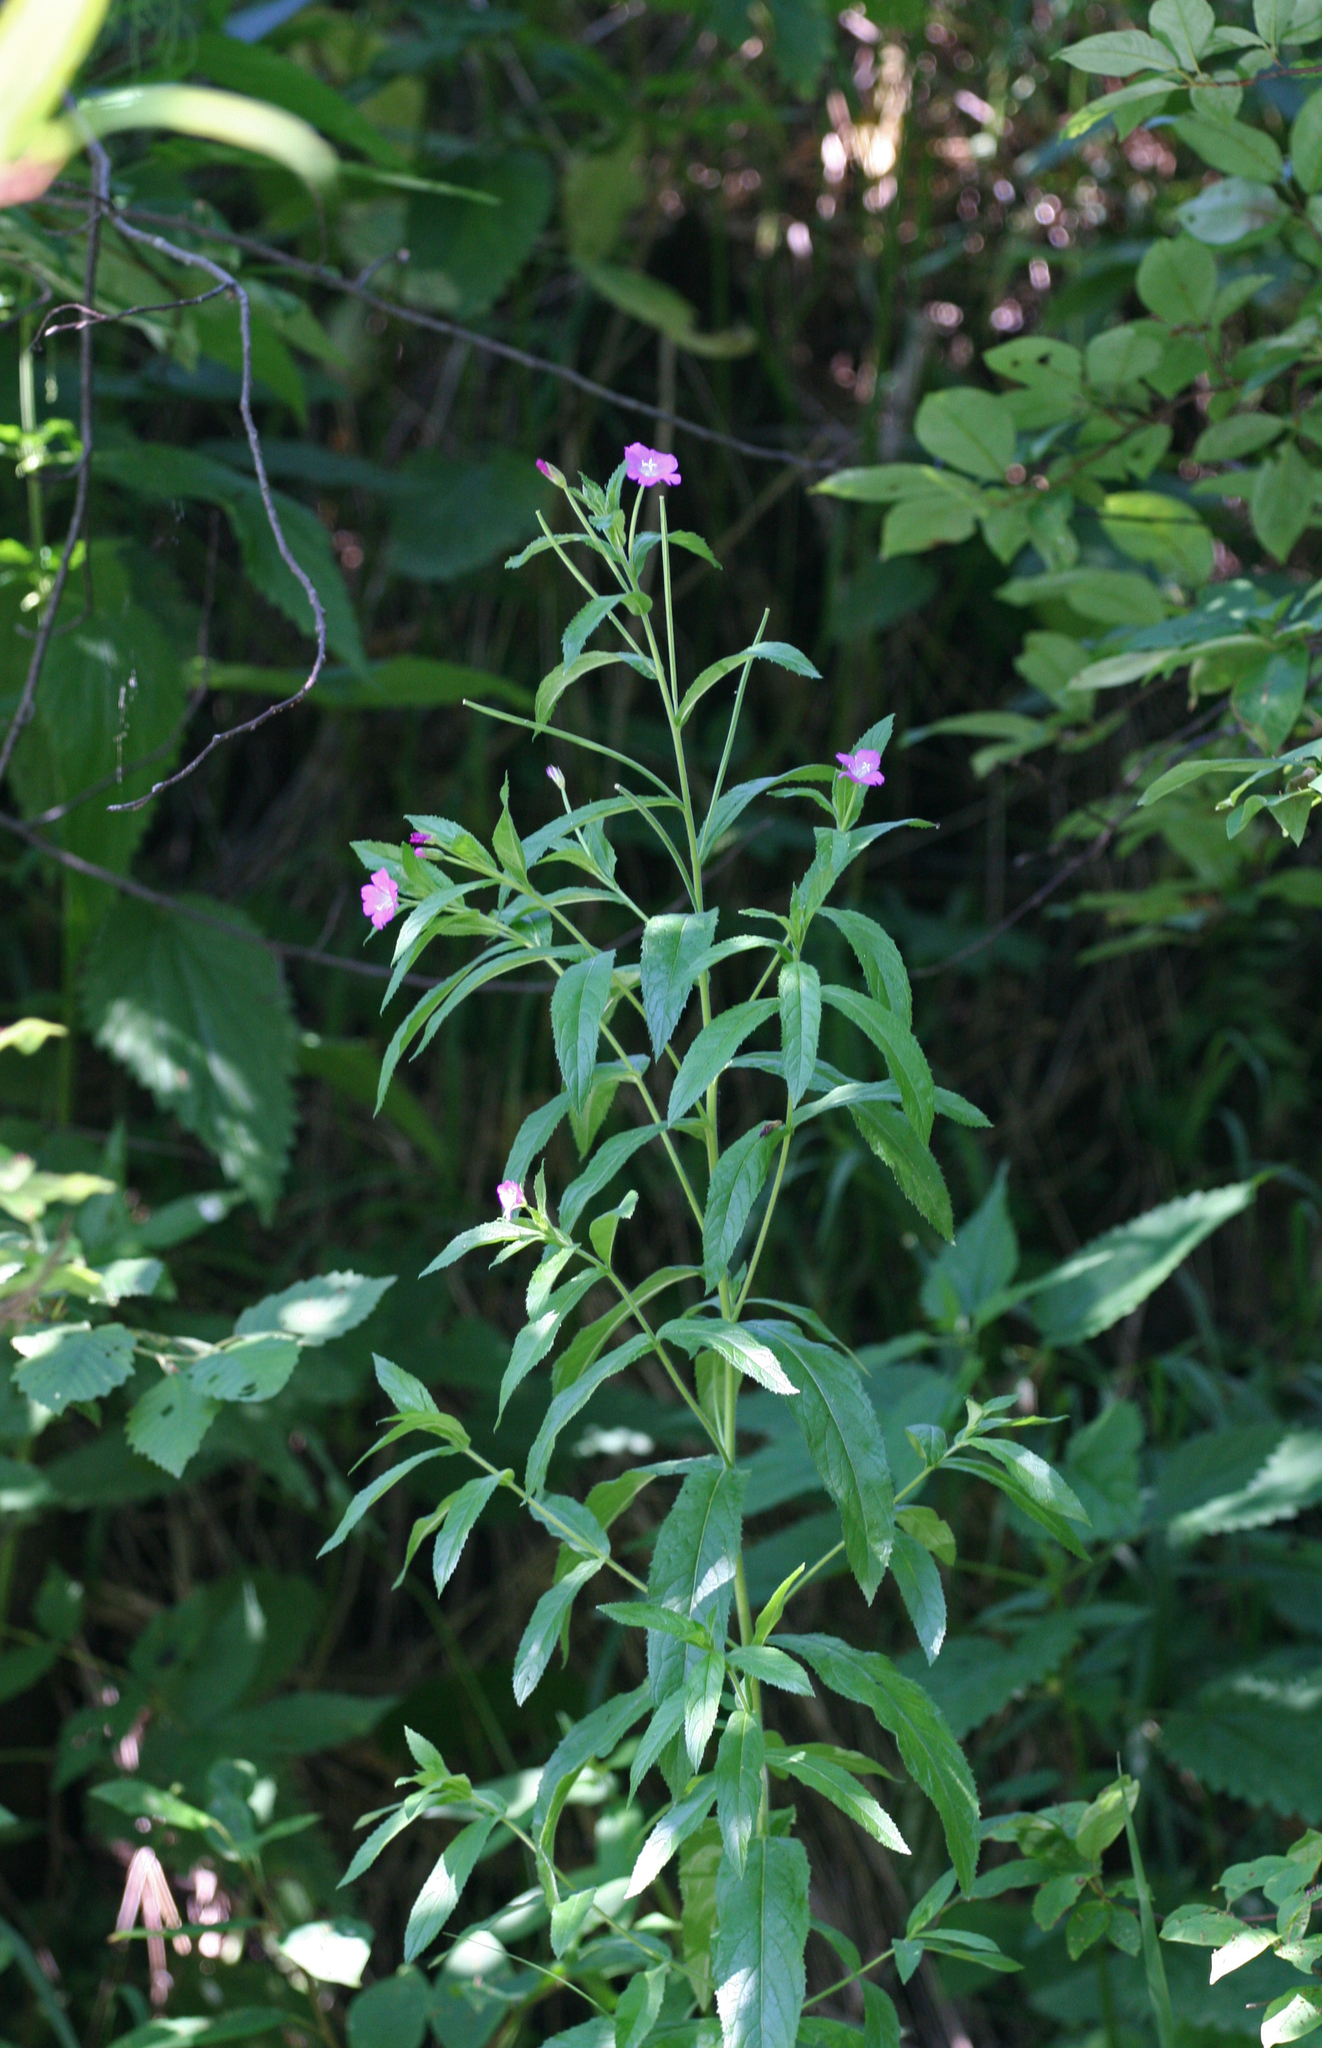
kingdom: Plantae
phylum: Tracheophyta
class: Magnoliopsida
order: Myrtales
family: Onagraceae
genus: Epilobium
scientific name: Epilobium hirsutum
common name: Great willowherb
